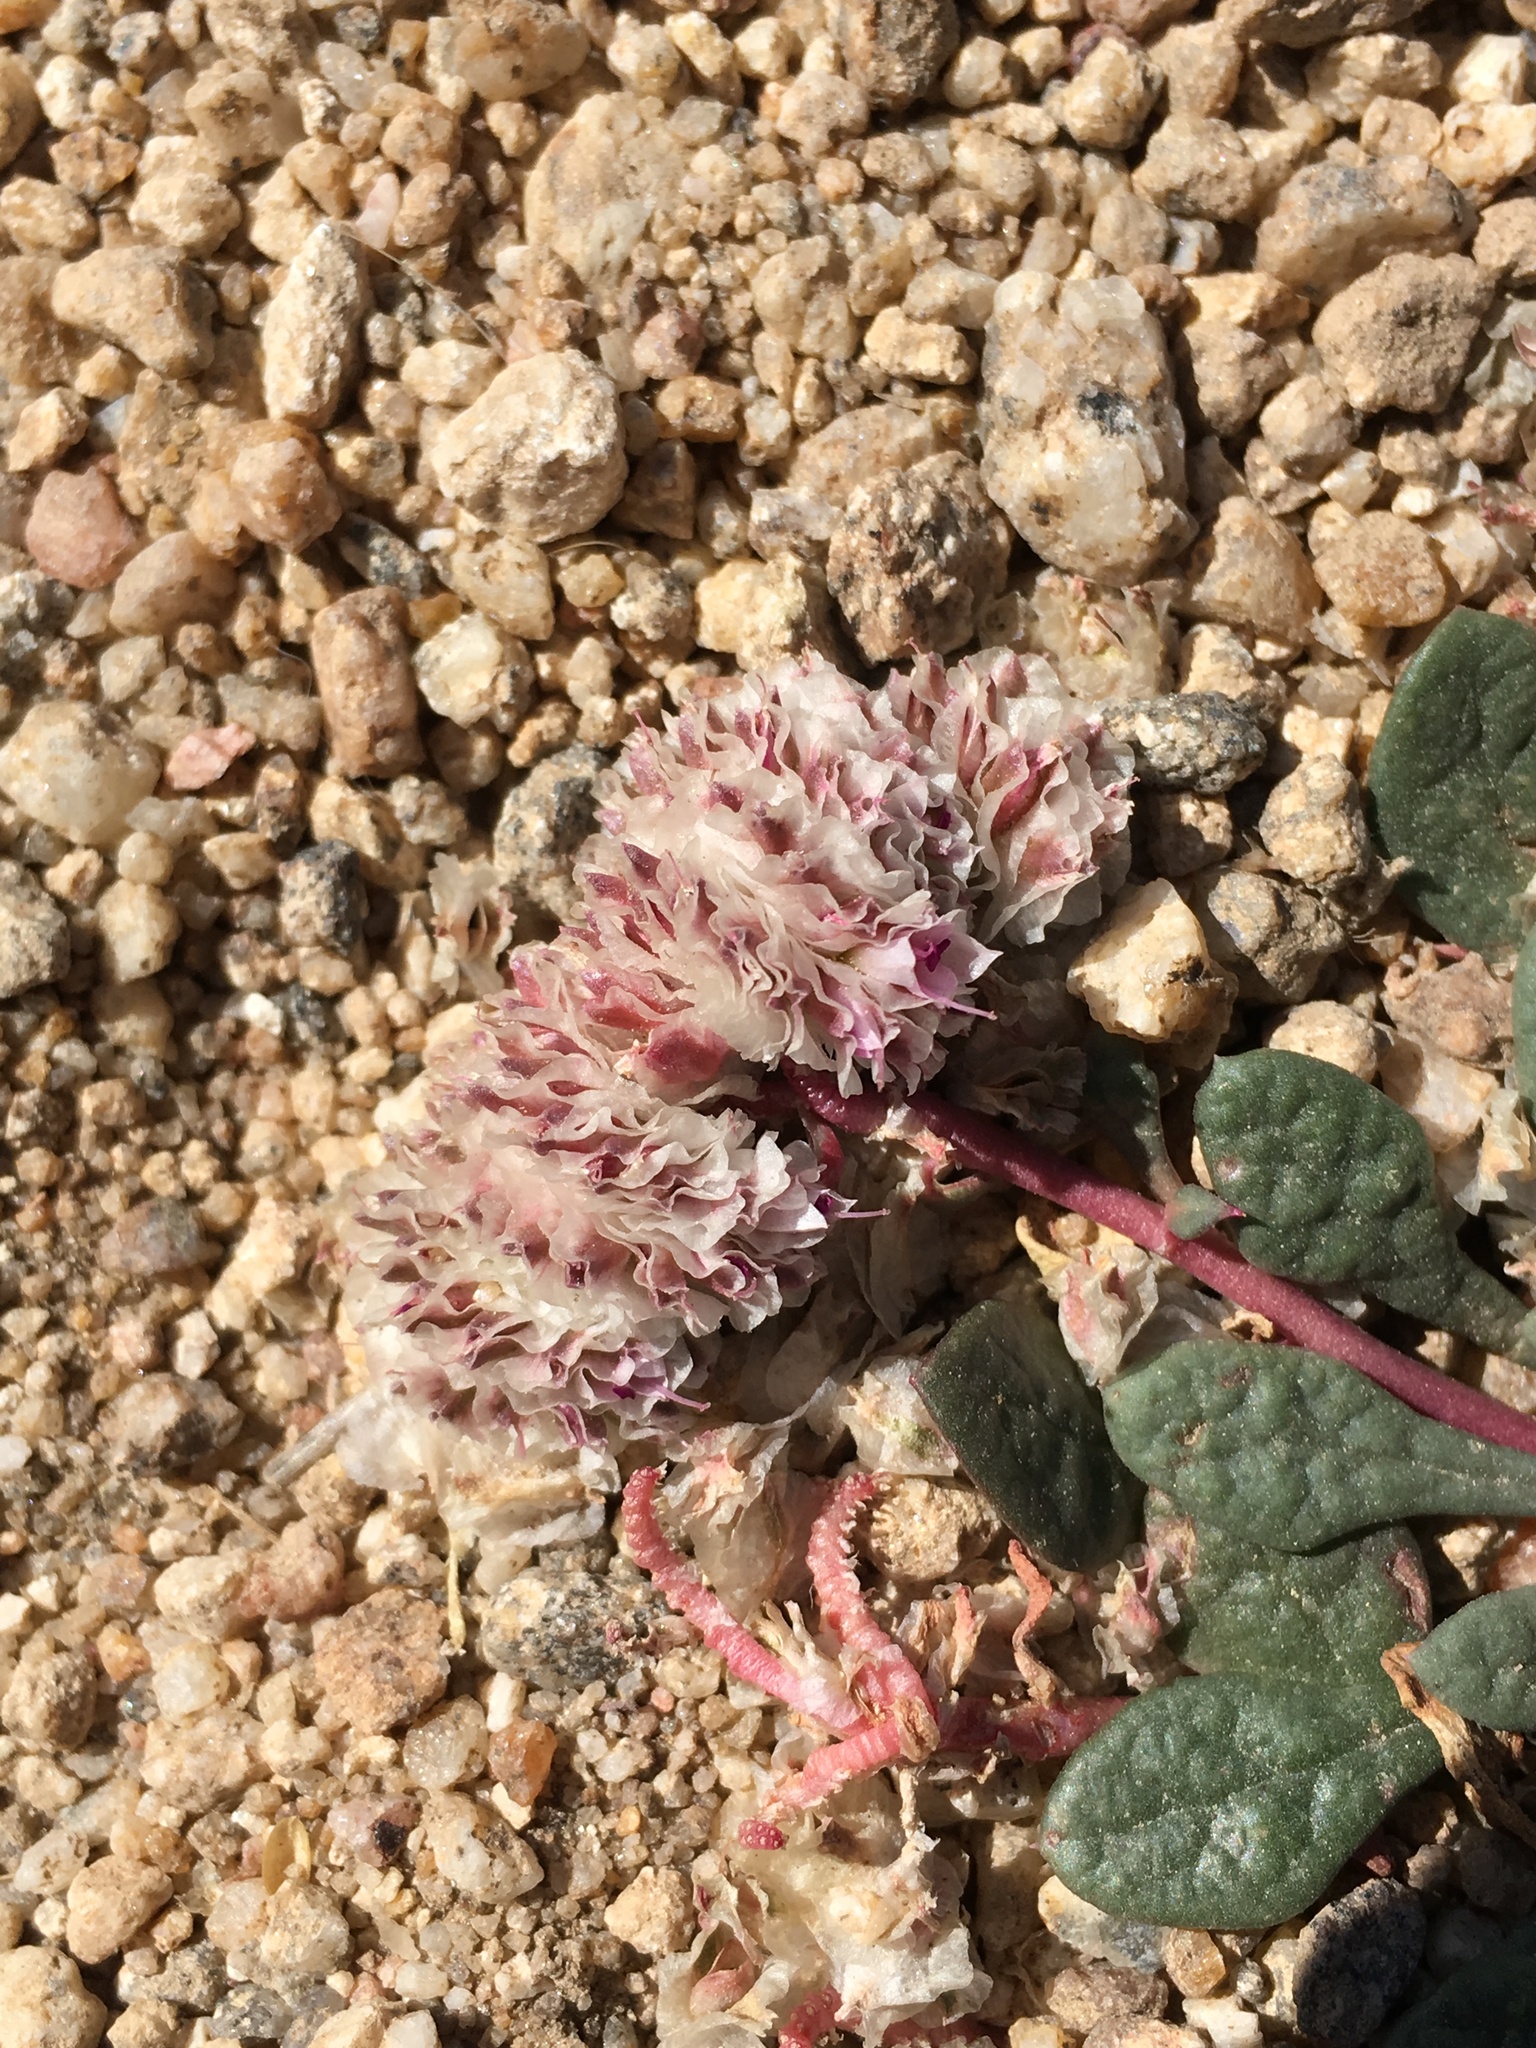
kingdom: Plantae
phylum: Tracheophyta
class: Magnoliopsida
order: Caryophyllales
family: Montiaceae
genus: Calyptridium
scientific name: Calyptridium monospermum
